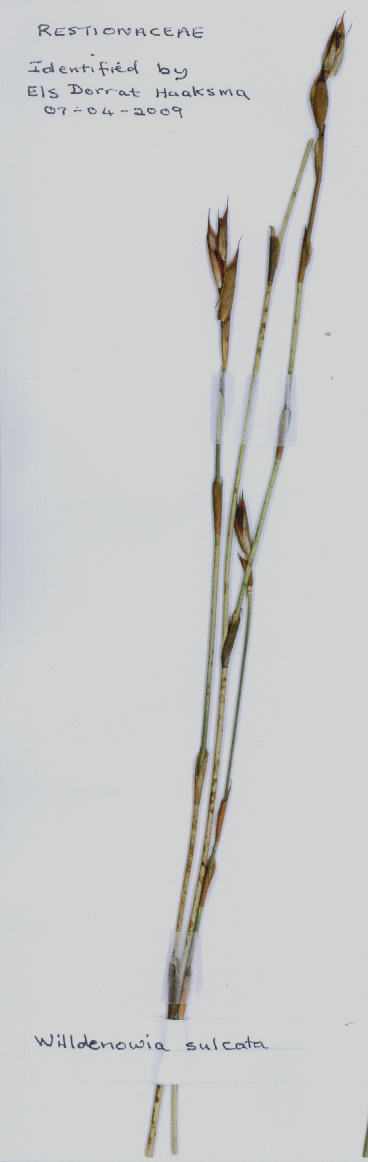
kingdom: Plantae
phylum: Tracheophyta
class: Liliopsida
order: Poales
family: Restionaceae
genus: Willdenowia
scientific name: Willdenowia sulcata
